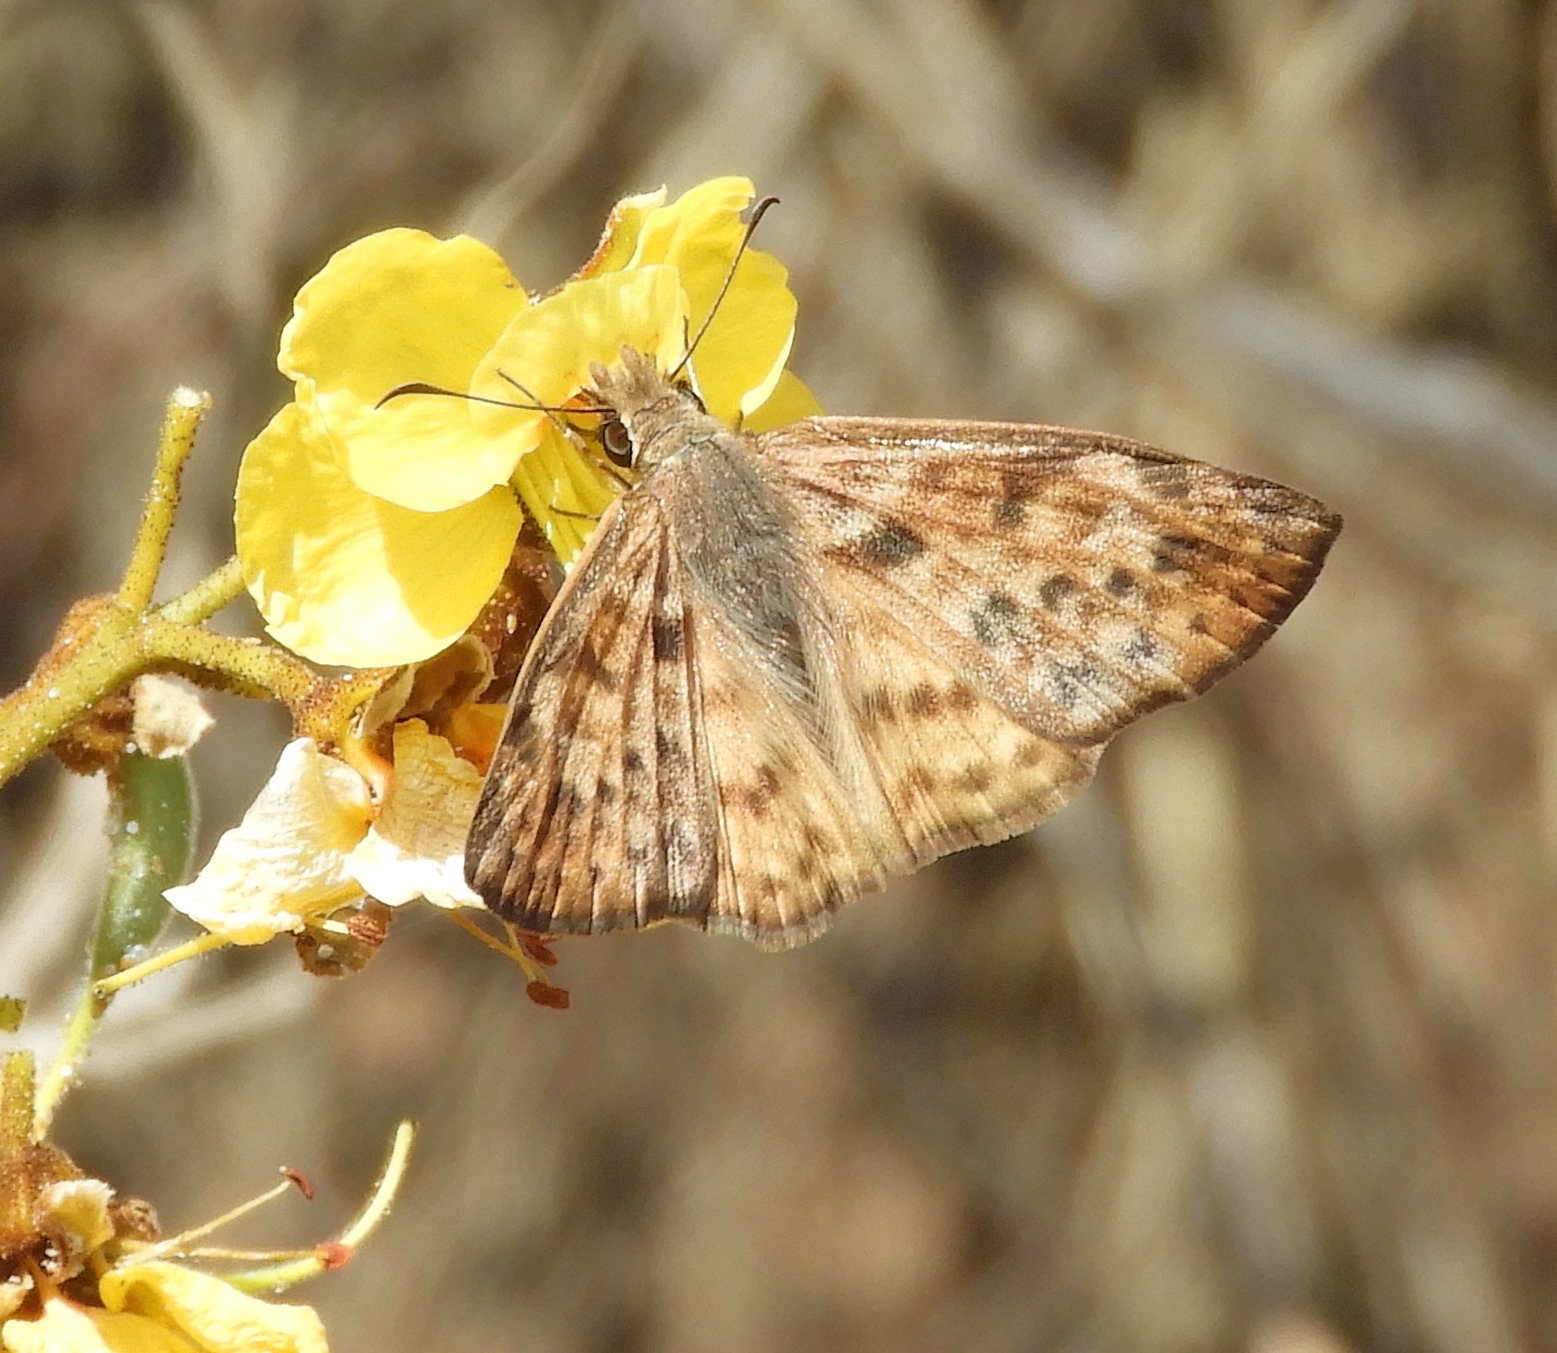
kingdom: Animalia
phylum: Arthropoda
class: Insecta
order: Lepidoptera
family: Hesperiidae
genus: Timochares
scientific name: Timochares ruptifasciata
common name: Brown-banded skipper
